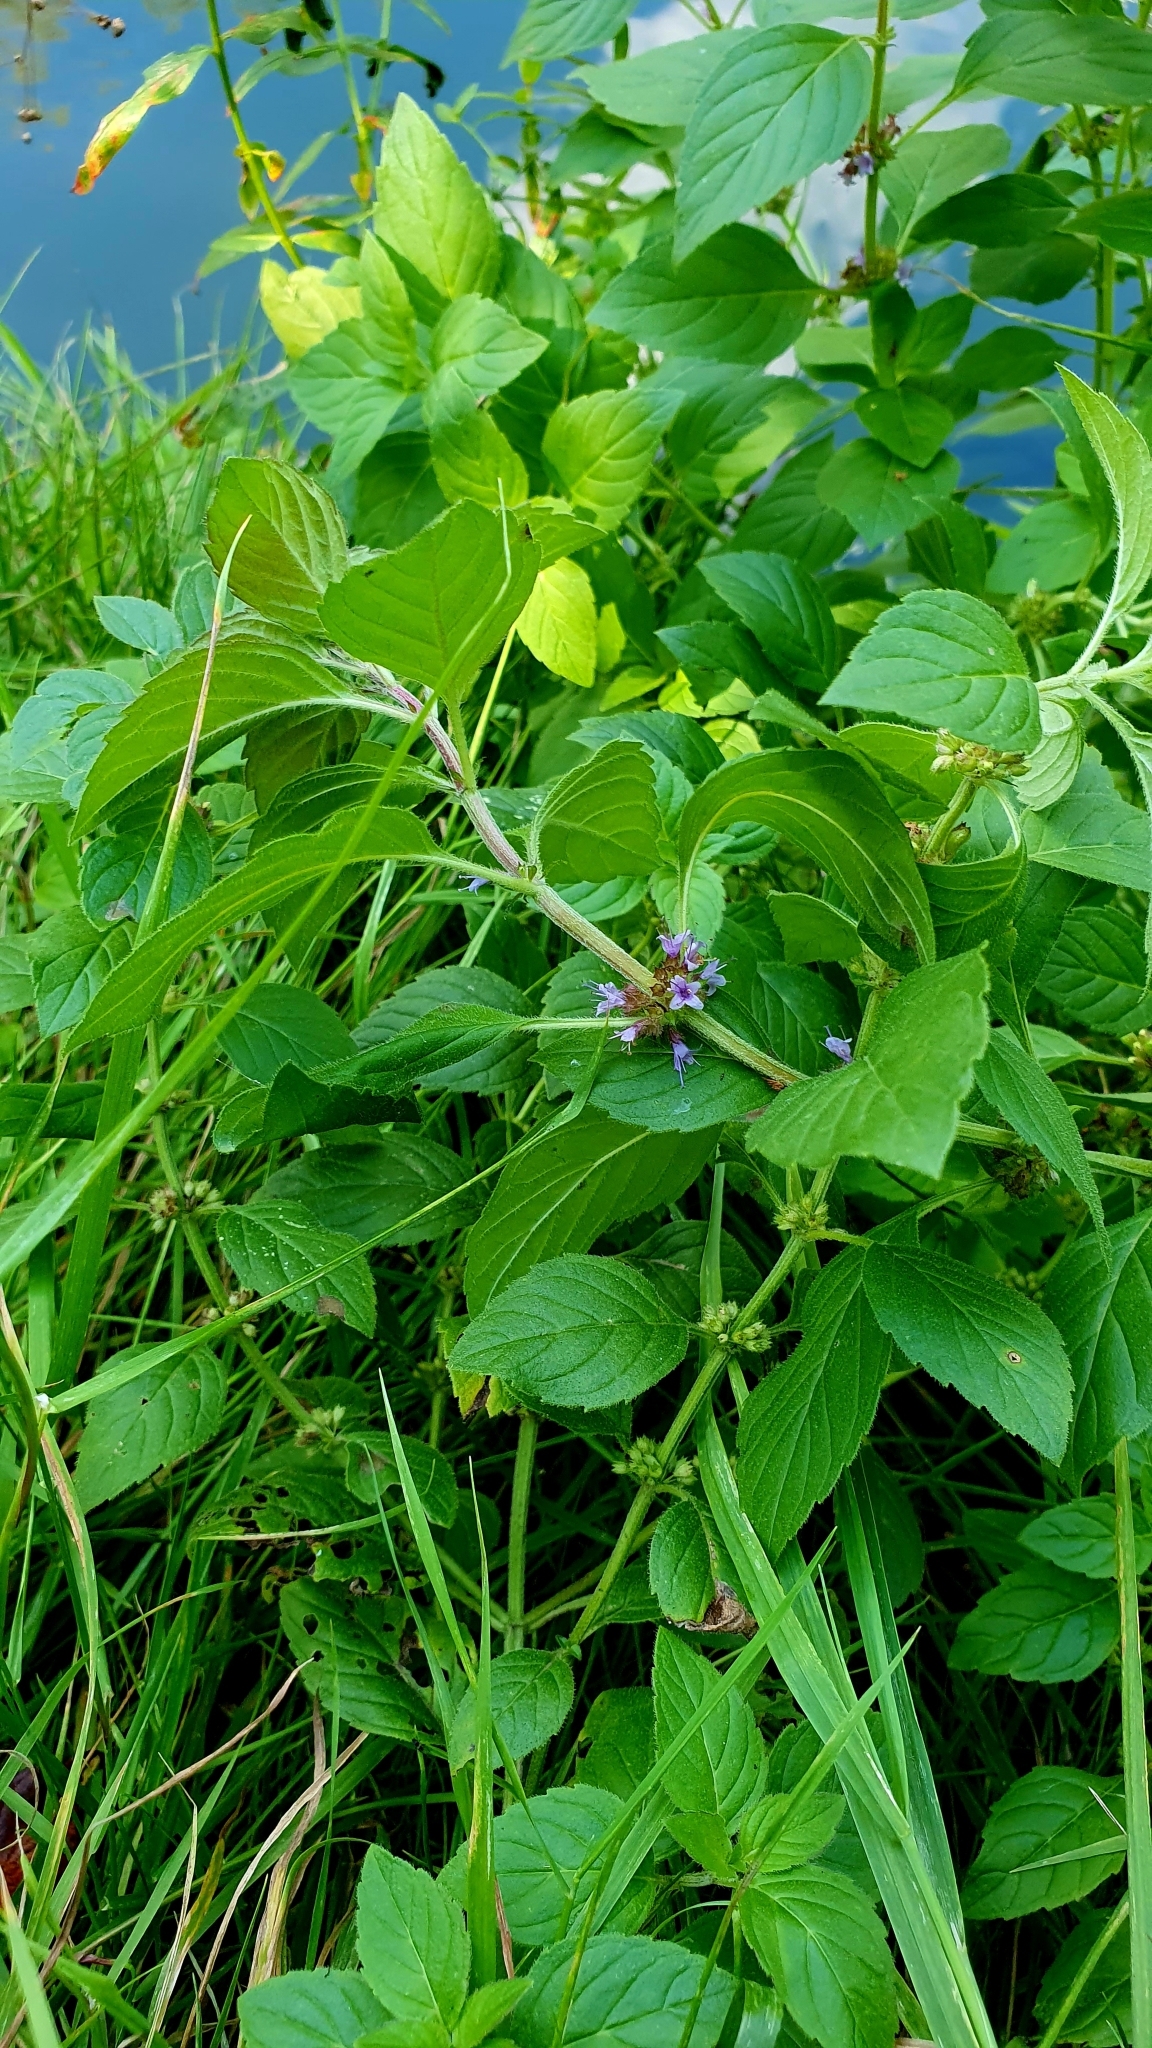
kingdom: Plantae
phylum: Tracheophyta
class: Magnoliopsida
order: Lamiales
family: Lamiaceae
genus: Mentha
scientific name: Mentha arvensis
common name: Corn mint
